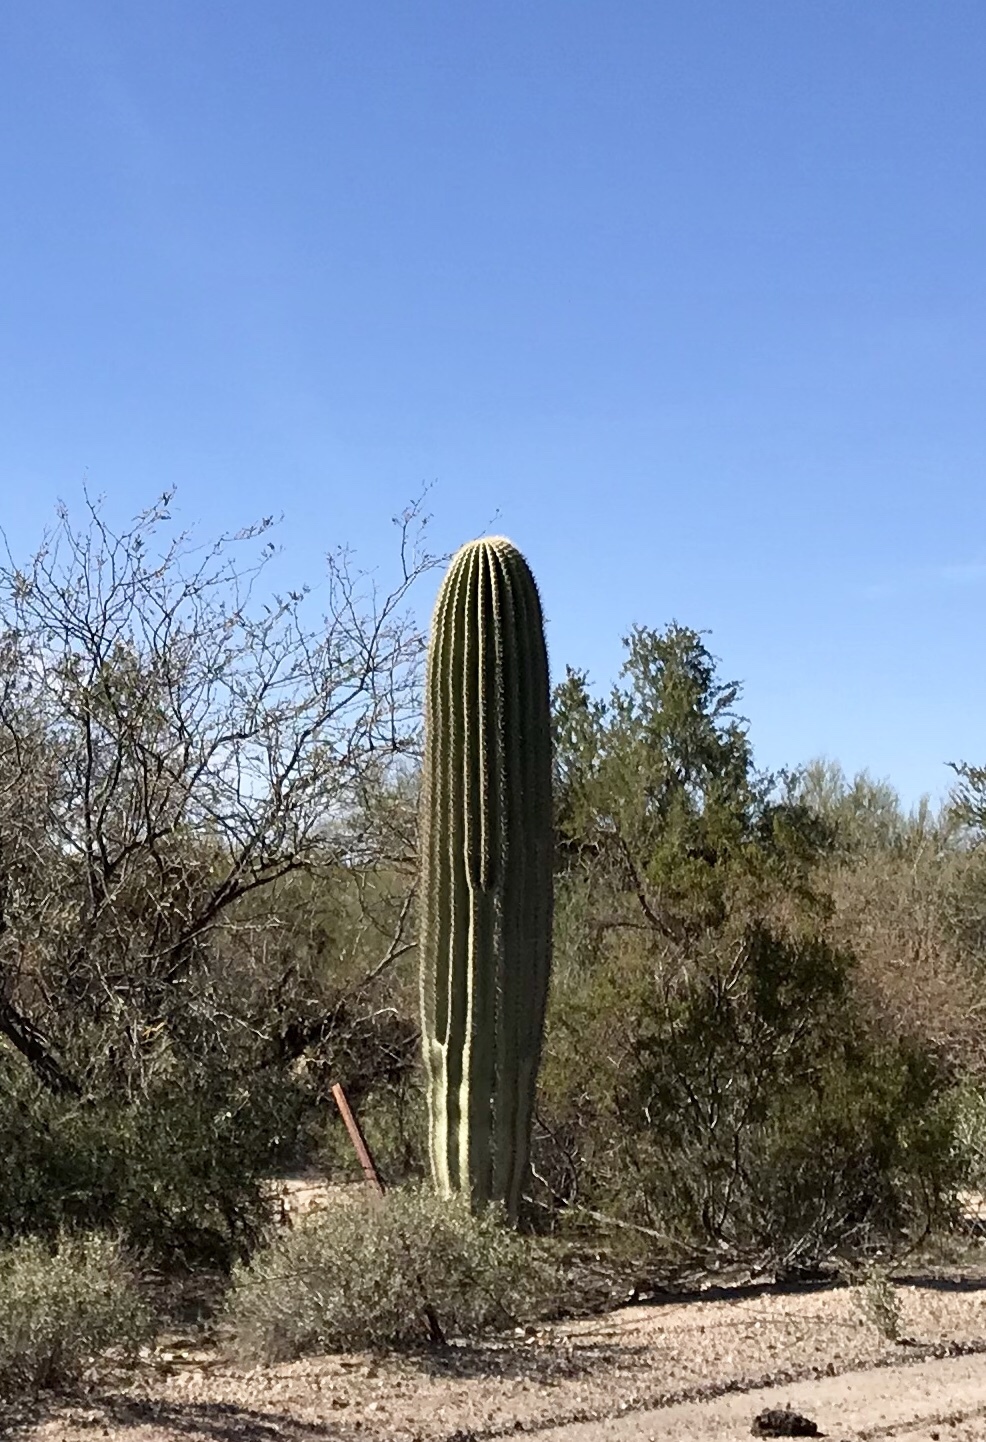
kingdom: Plantae
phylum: Tracheophyta
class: Magnoliopsida
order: Caryophyllales
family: Cactaceae
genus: Carnegiea
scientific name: Carnegiea gigantea
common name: Saguaro
